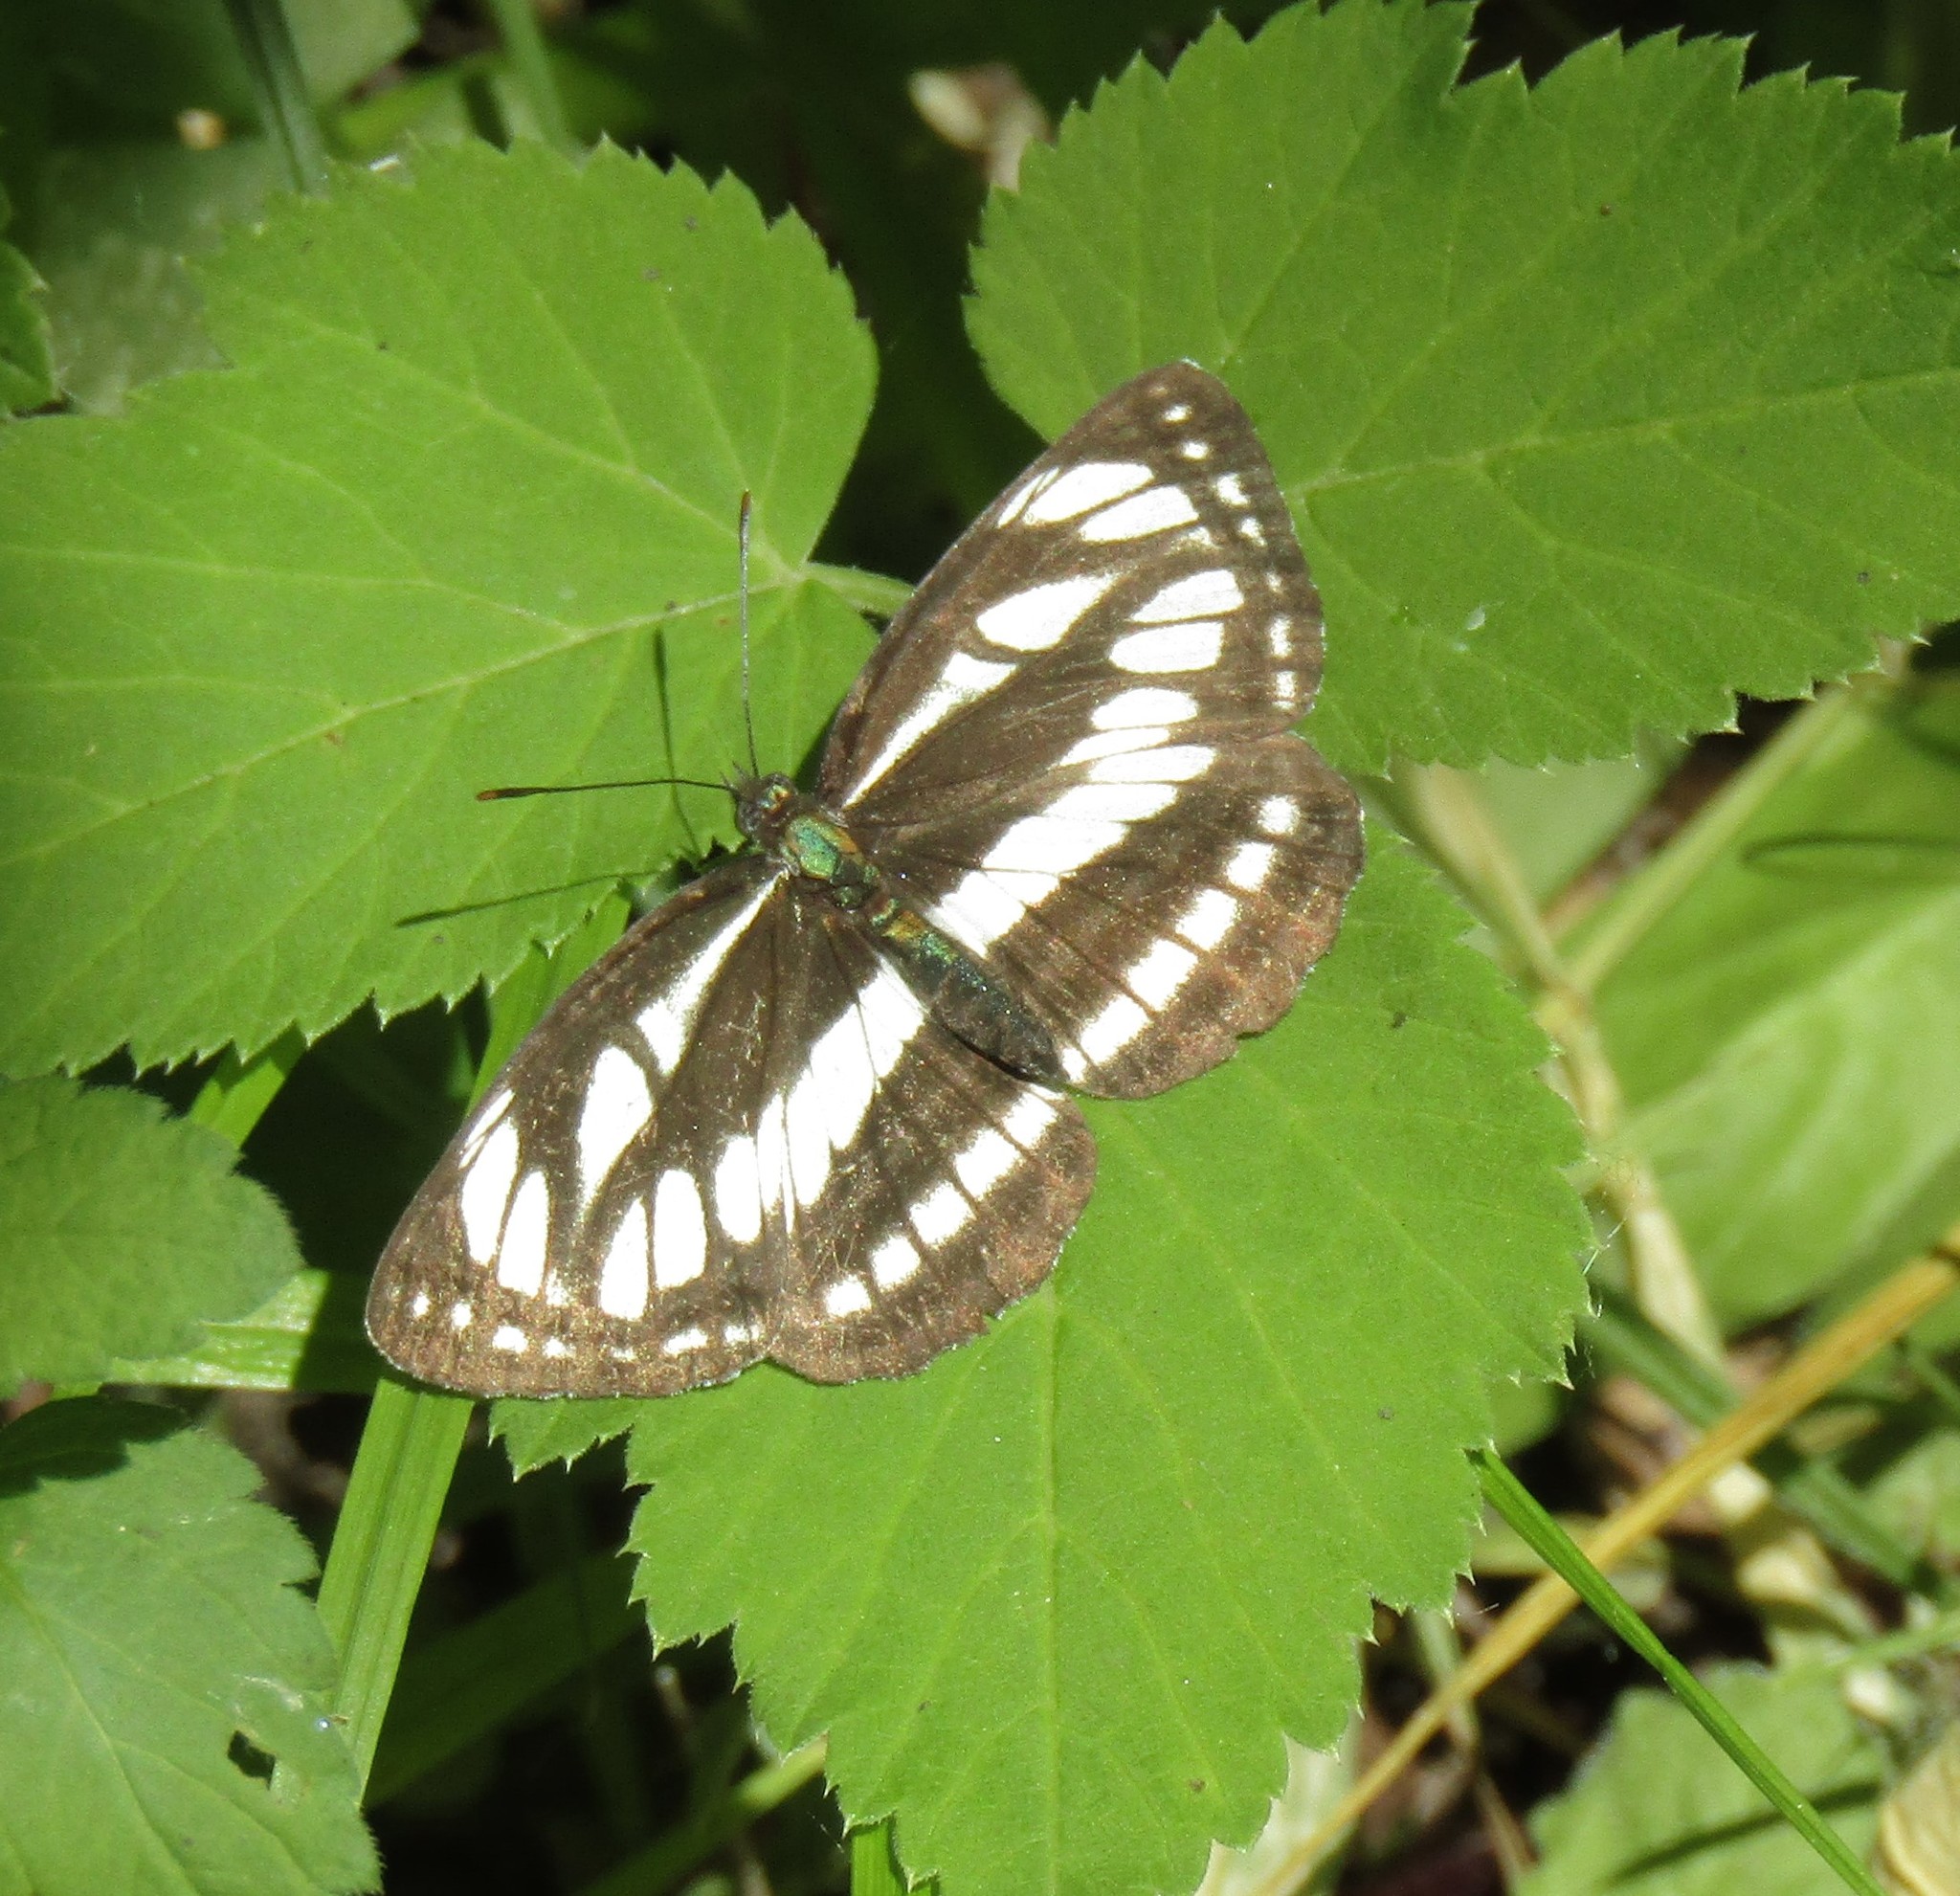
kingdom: Animalia
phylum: Arthropoda
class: Insecta
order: Lepidoptera
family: Nymphalidae
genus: Neptis
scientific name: Neptis sappho
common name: Common glider
